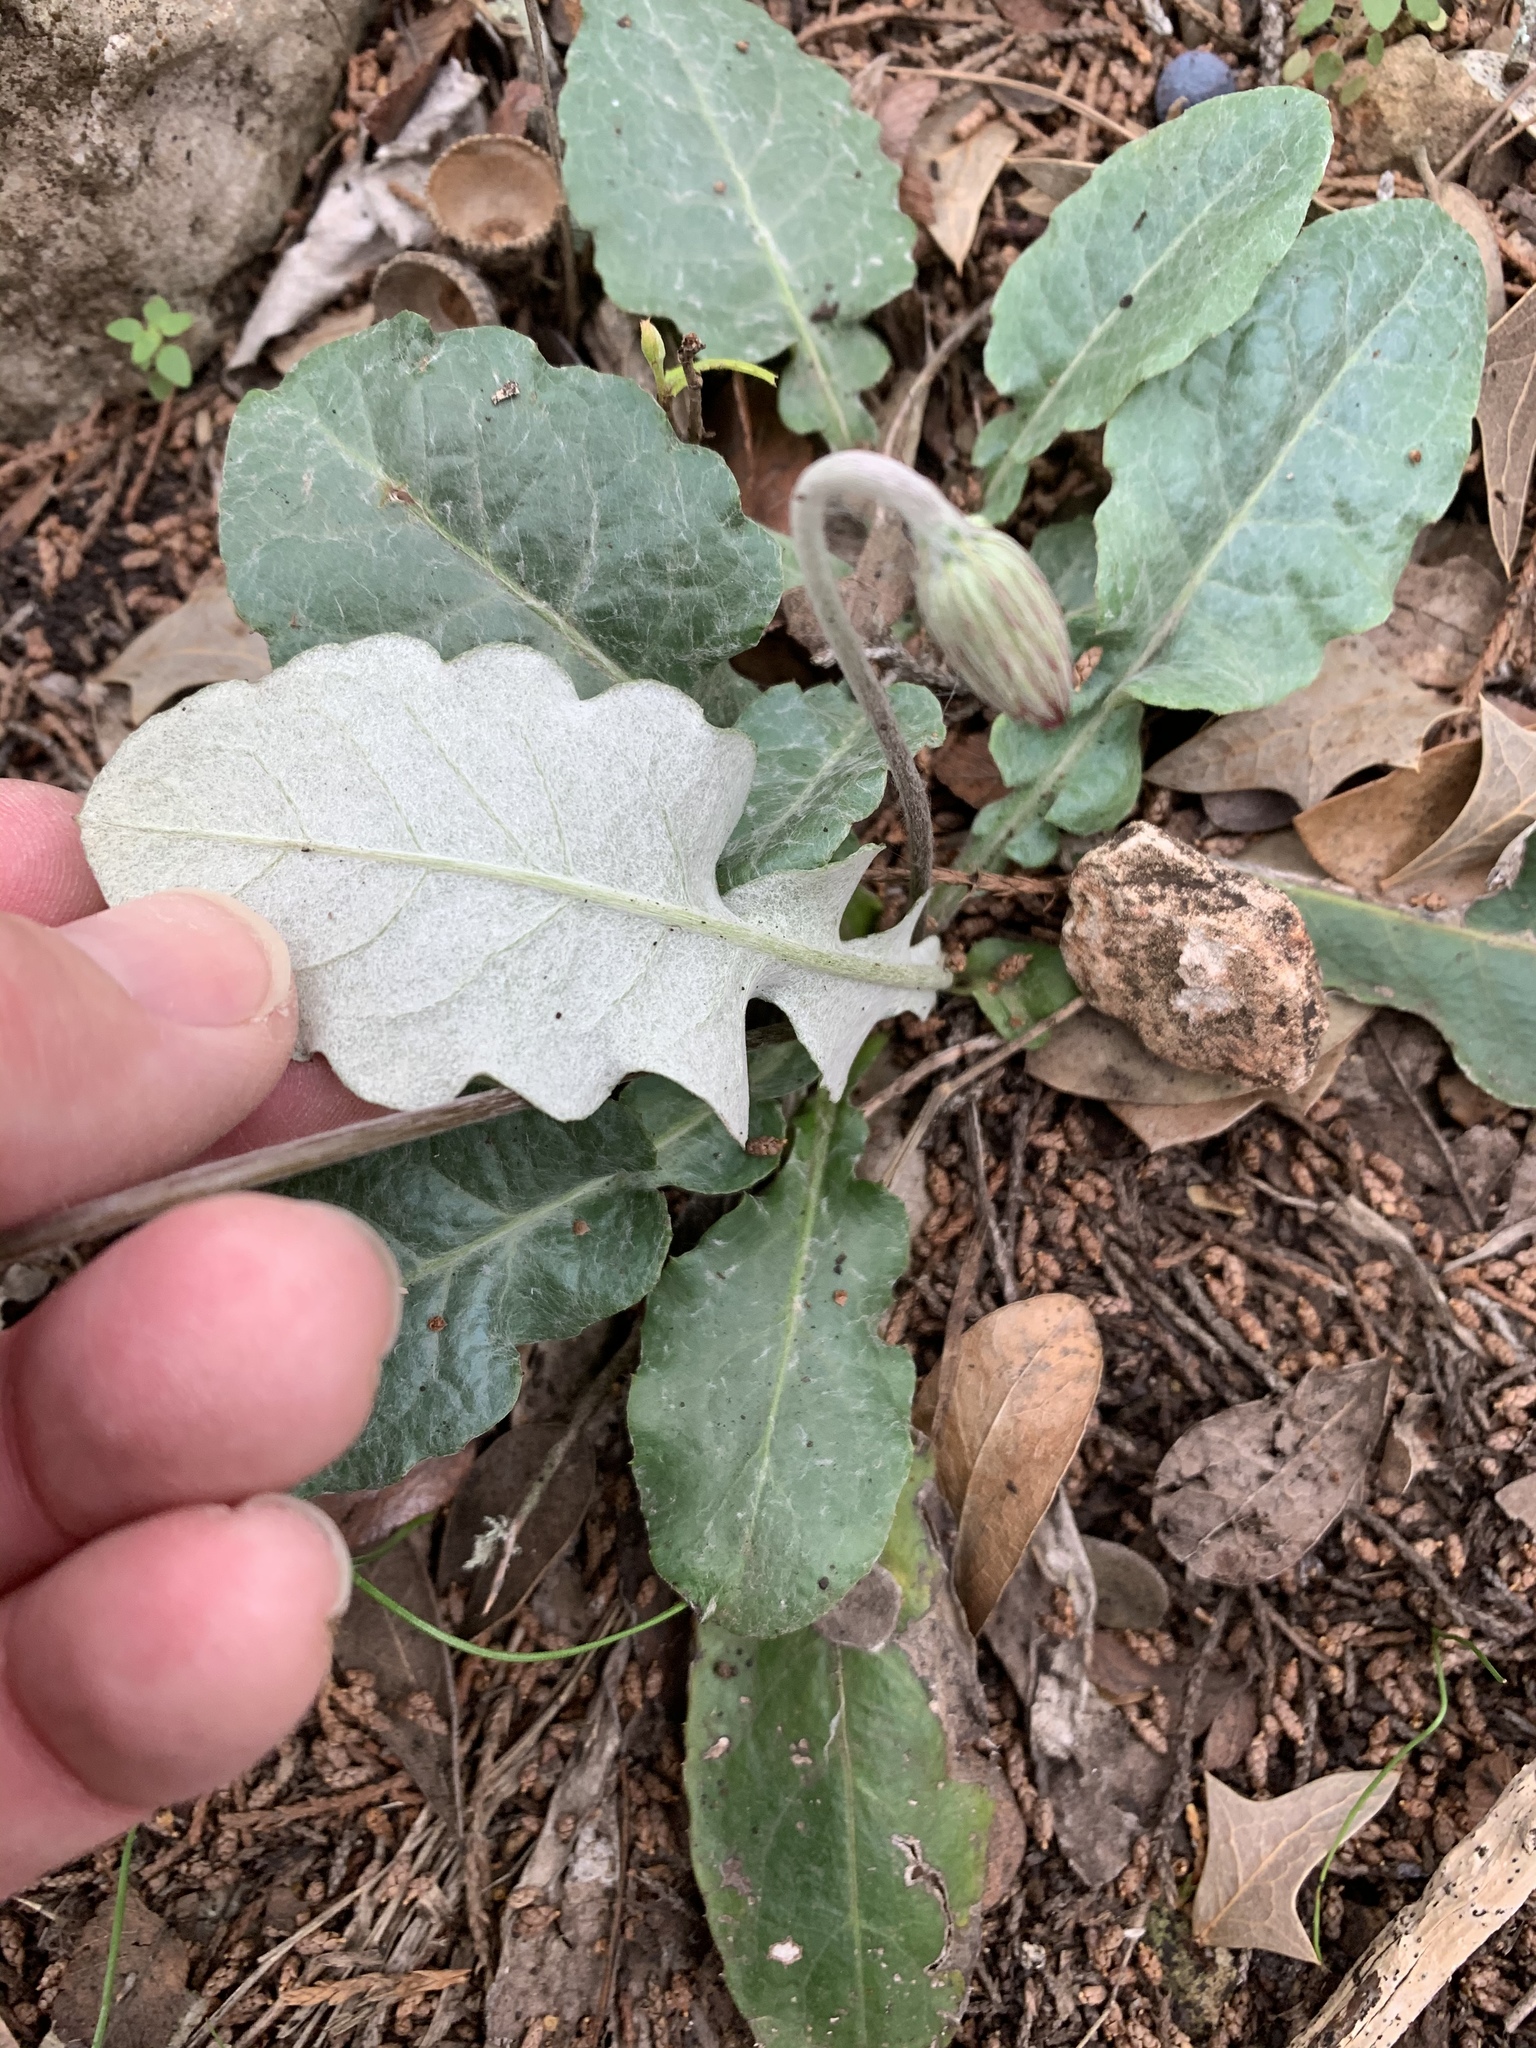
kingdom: Plantae
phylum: Tracheophyta
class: Magnoliopsida
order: Asterales
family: Asteraceae
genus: Chaptalia
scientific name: Chaptalia texana
